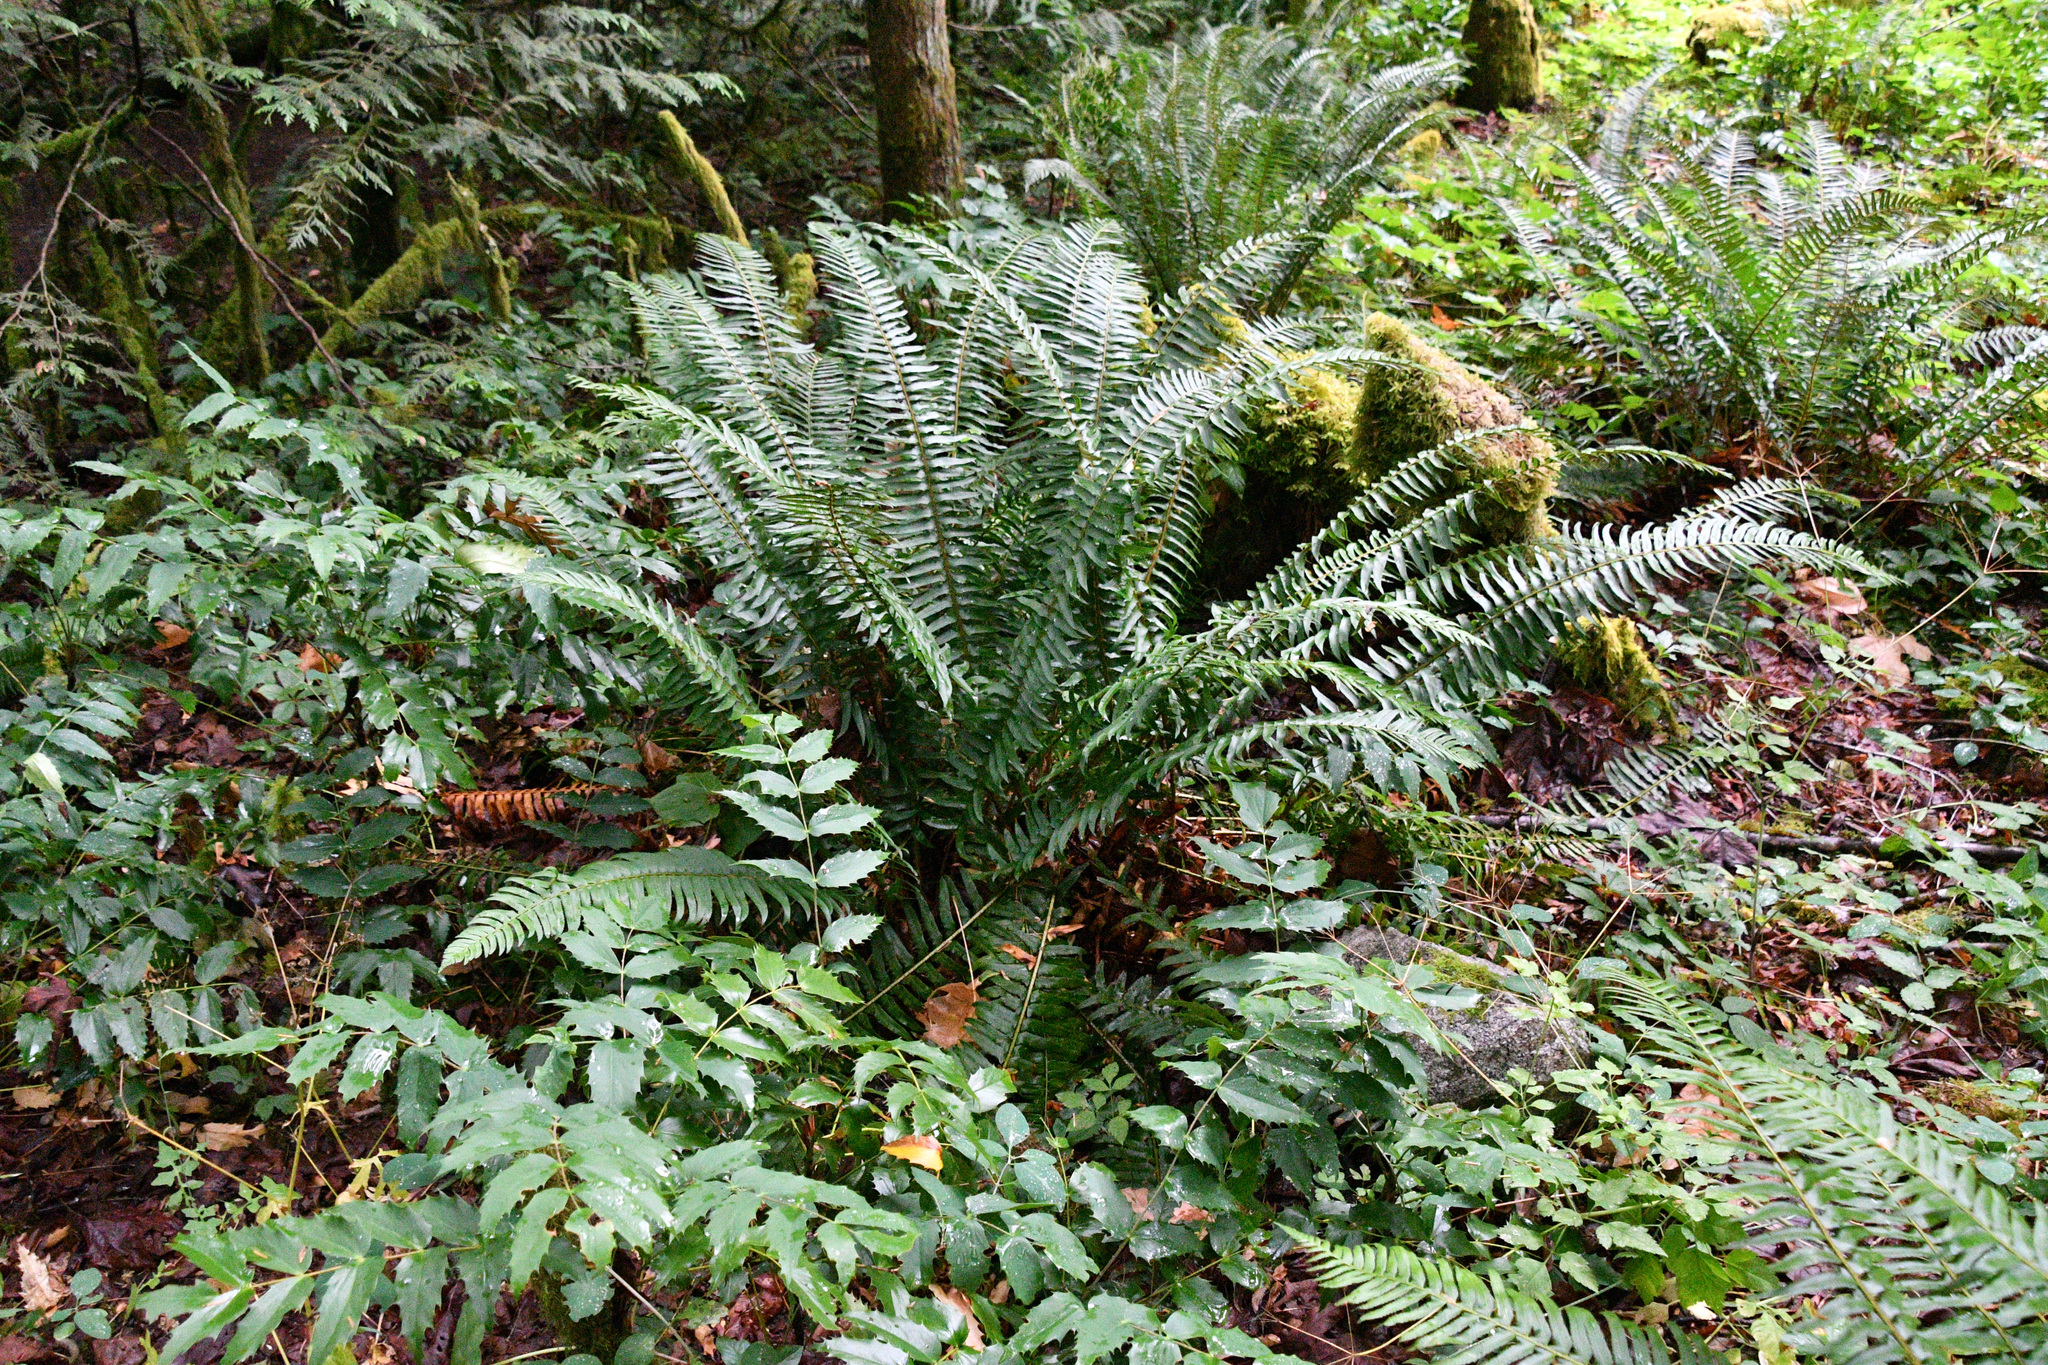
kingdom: Plantae
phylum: Tracheophyta
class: Polypodiopsida
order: Polypodiales
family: Dryopteridaceae
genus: Polystichum
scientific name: Polystichum munitum
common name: Western sword-fern
